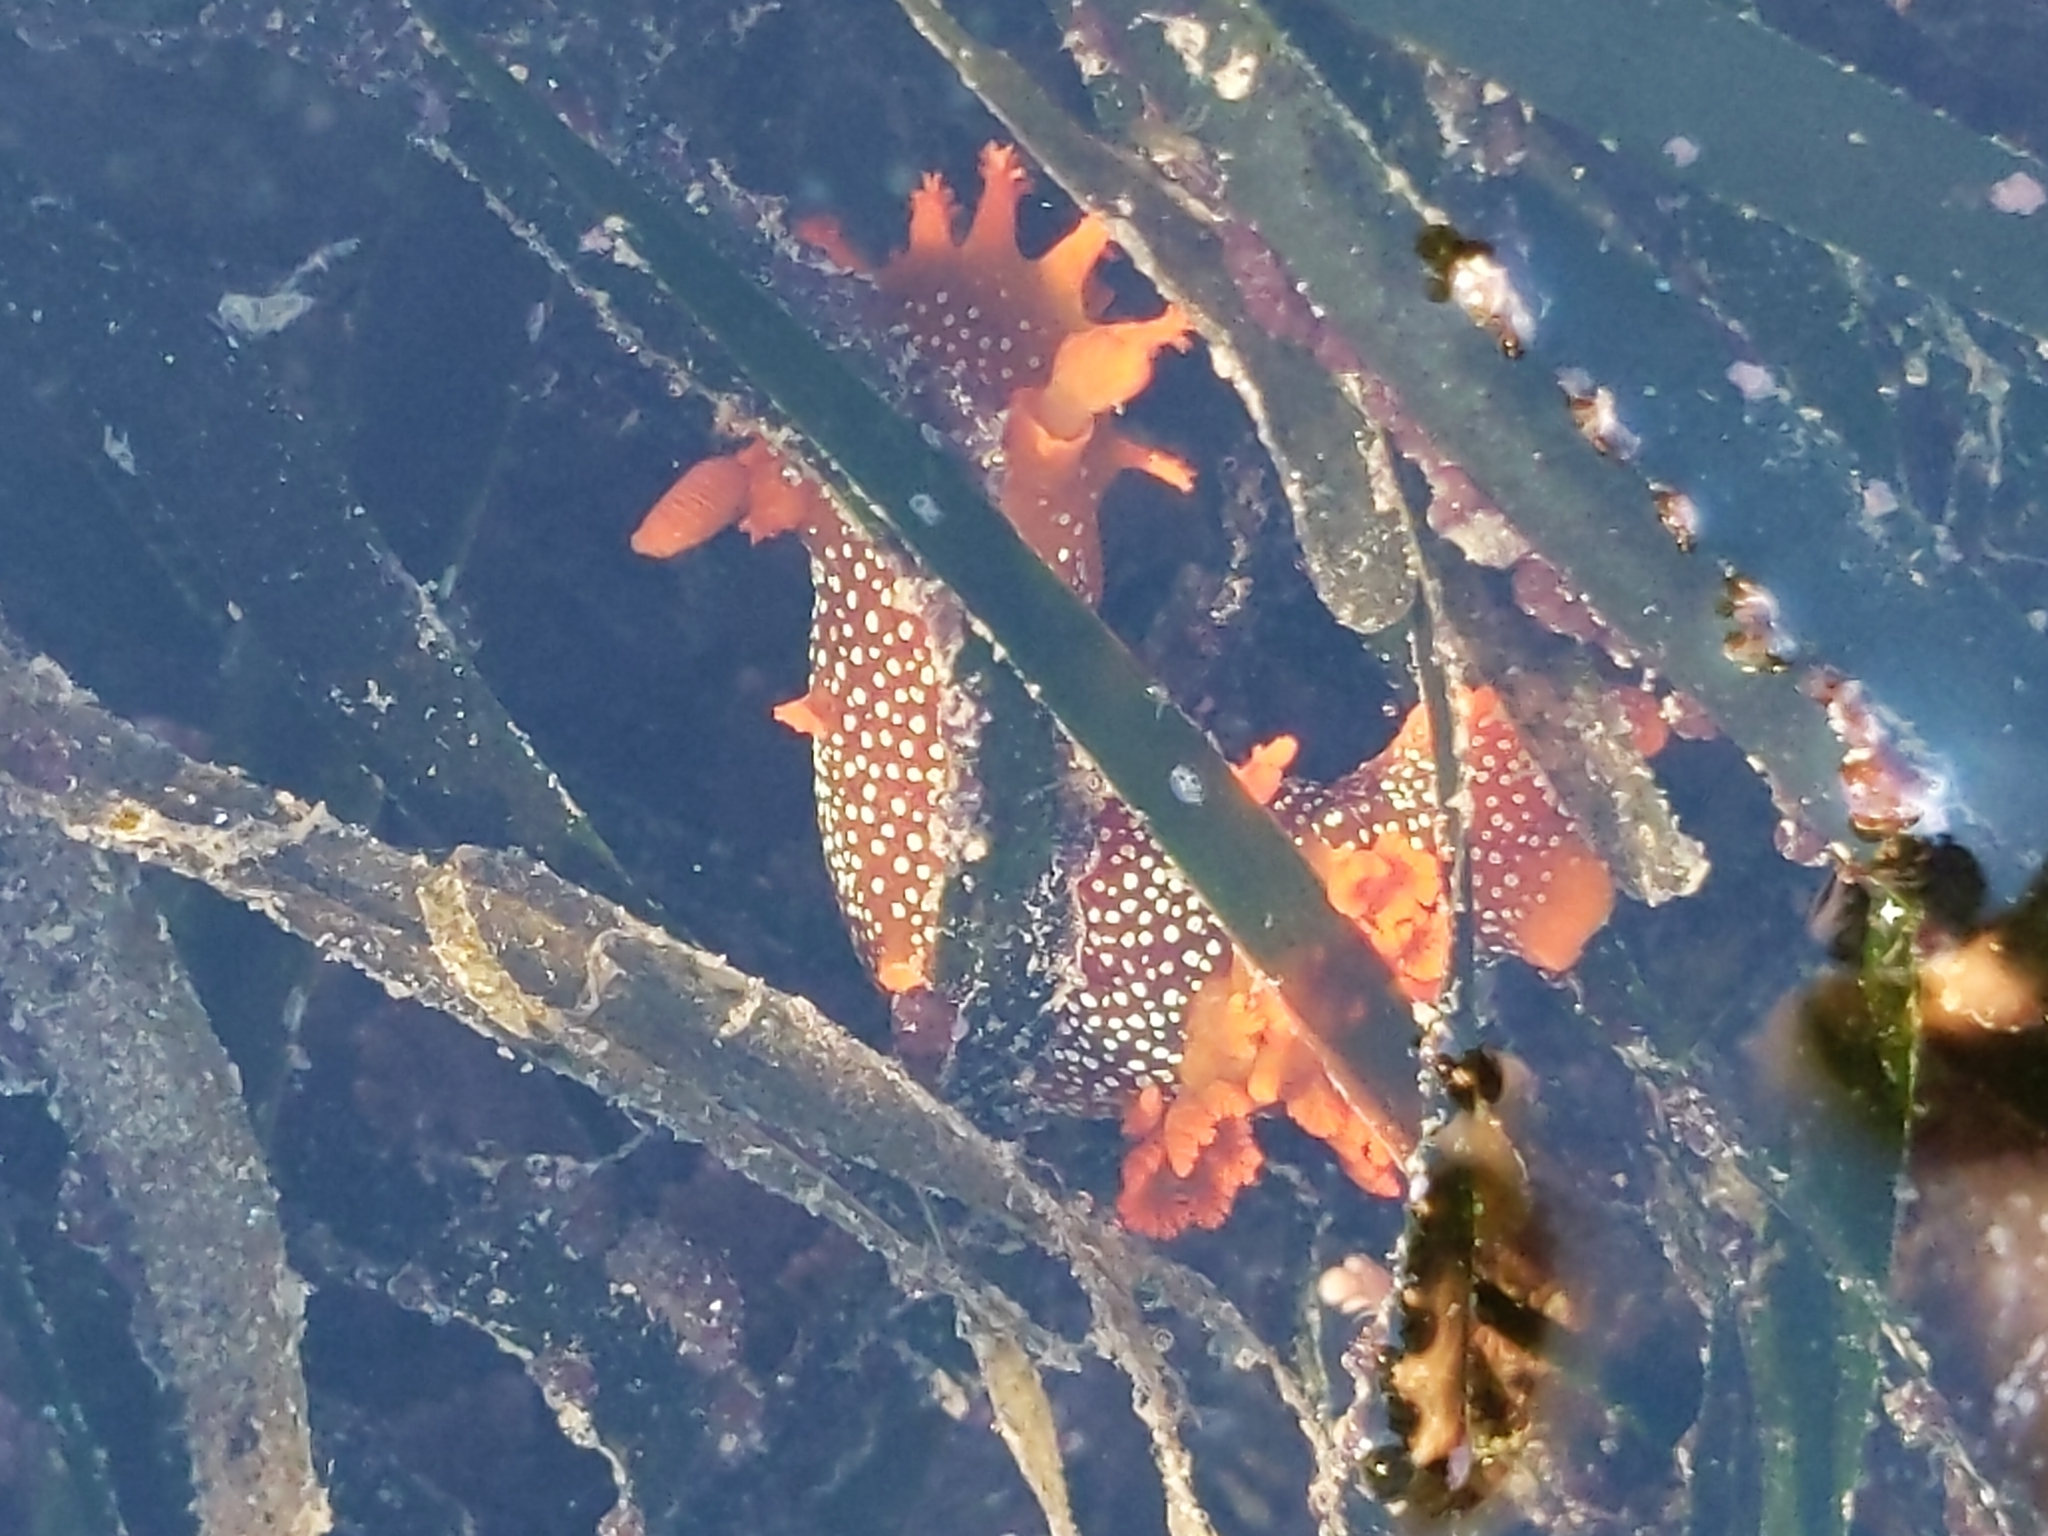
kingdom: Animalia
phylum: Mollusca
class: Gastropoda
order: Nudibranchia
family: Polyceridae
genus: Triopha
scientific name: Triopha maculata
